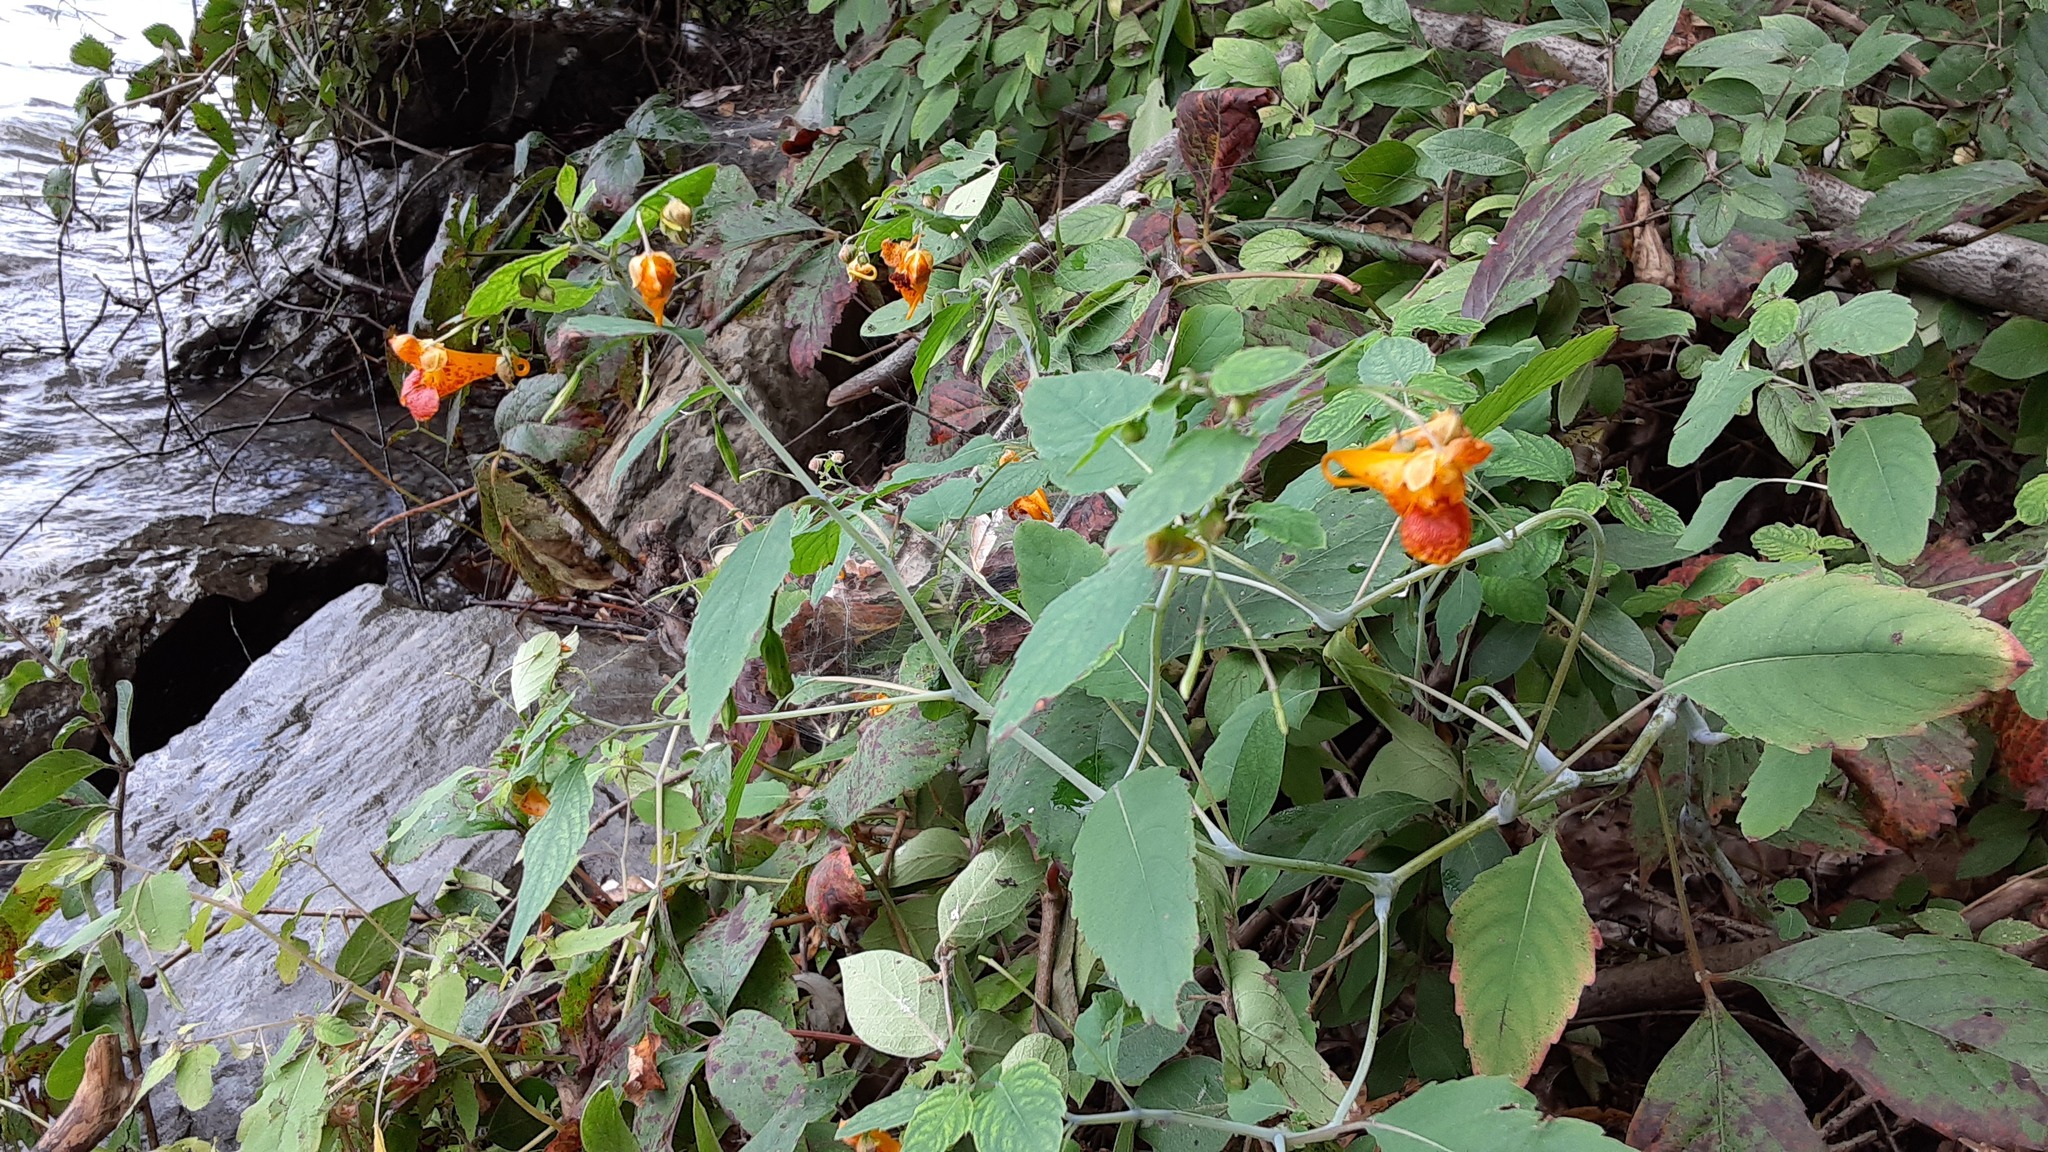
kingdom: Plantae
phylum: Tracheophyta
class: Magnoliopsida
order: Ericales
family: Balsaminaceae
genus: Impatiens
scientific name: Impatiens capensis
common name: Orange balsam
